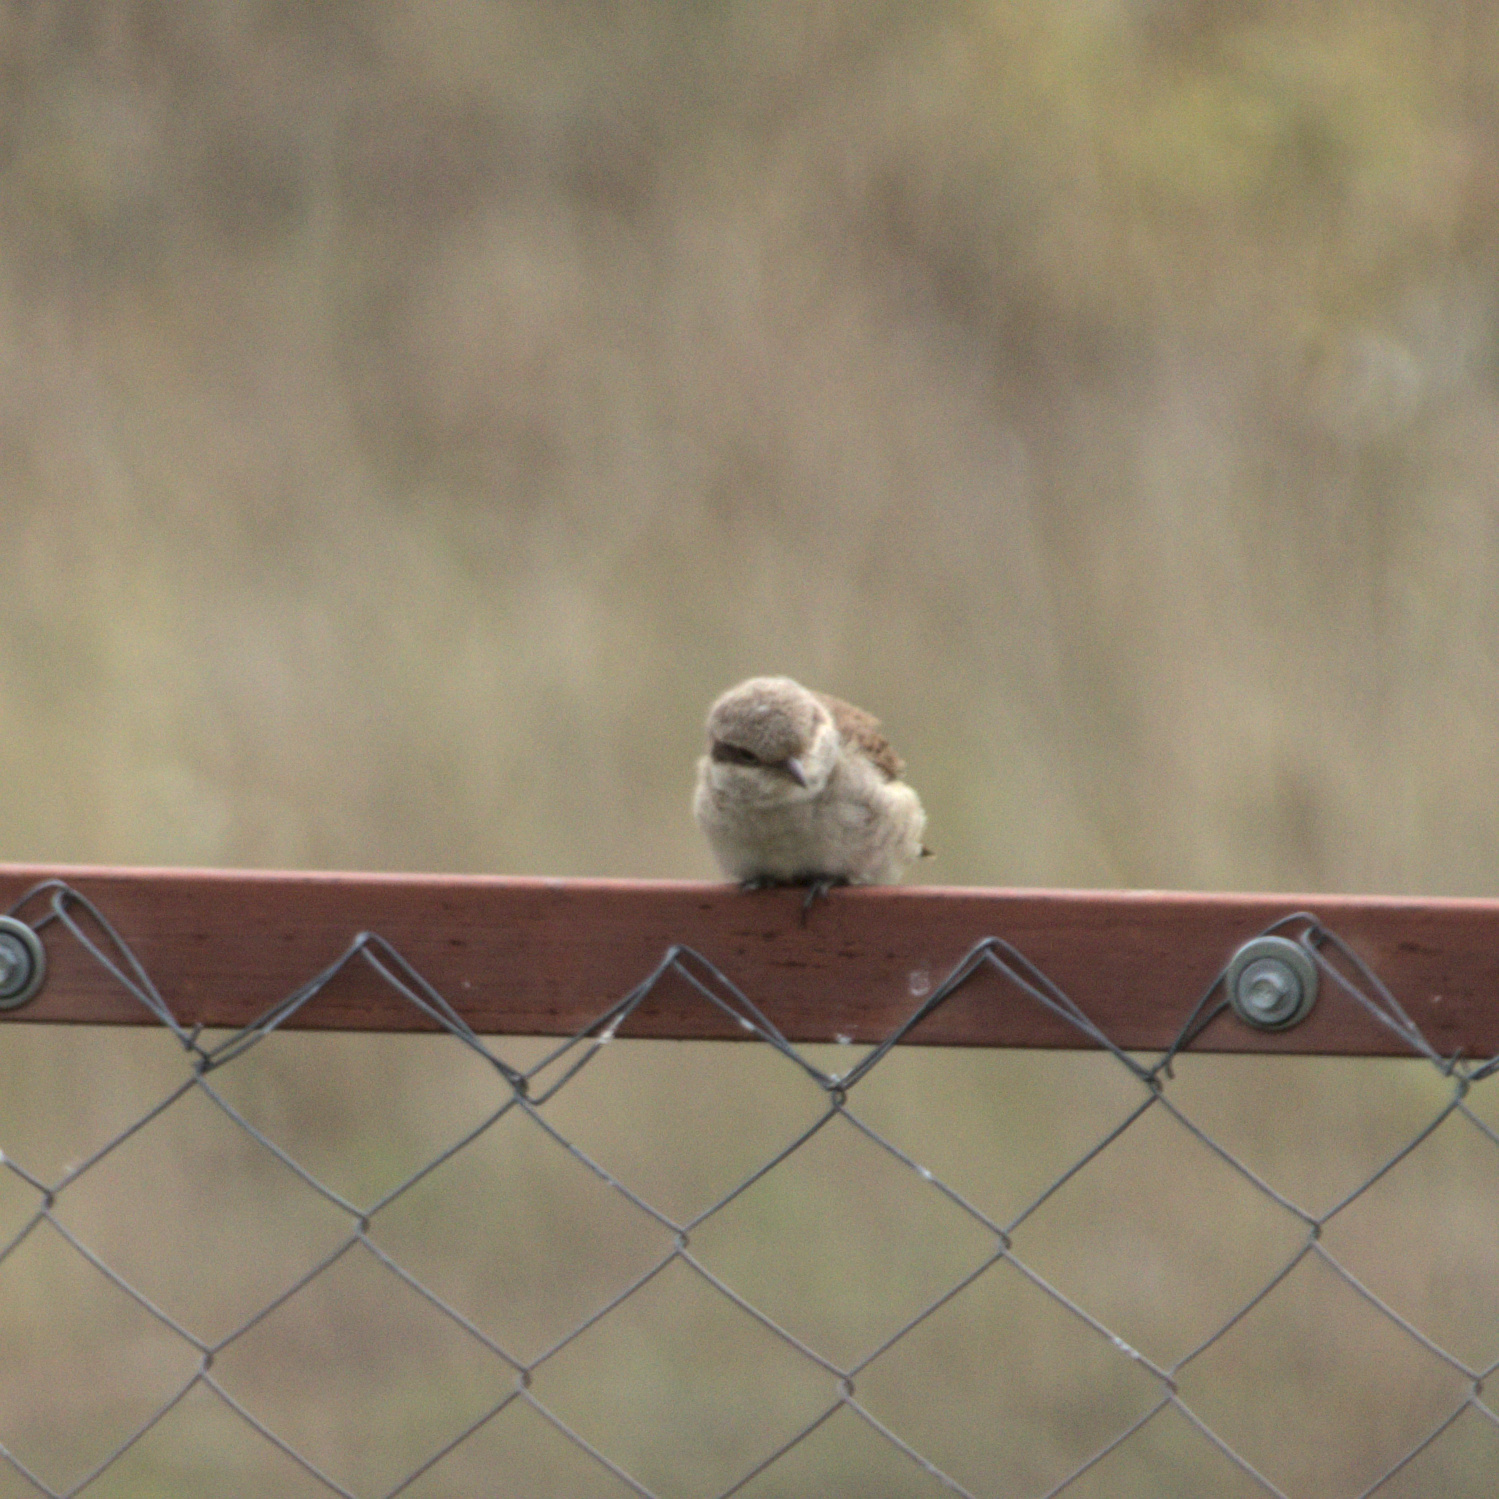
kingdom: Animalia
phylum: Chordata
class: Aves
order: Passeriformes
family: Laniidae
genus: Lanius
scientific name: Lanius collurio
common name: Red-backed shrike
